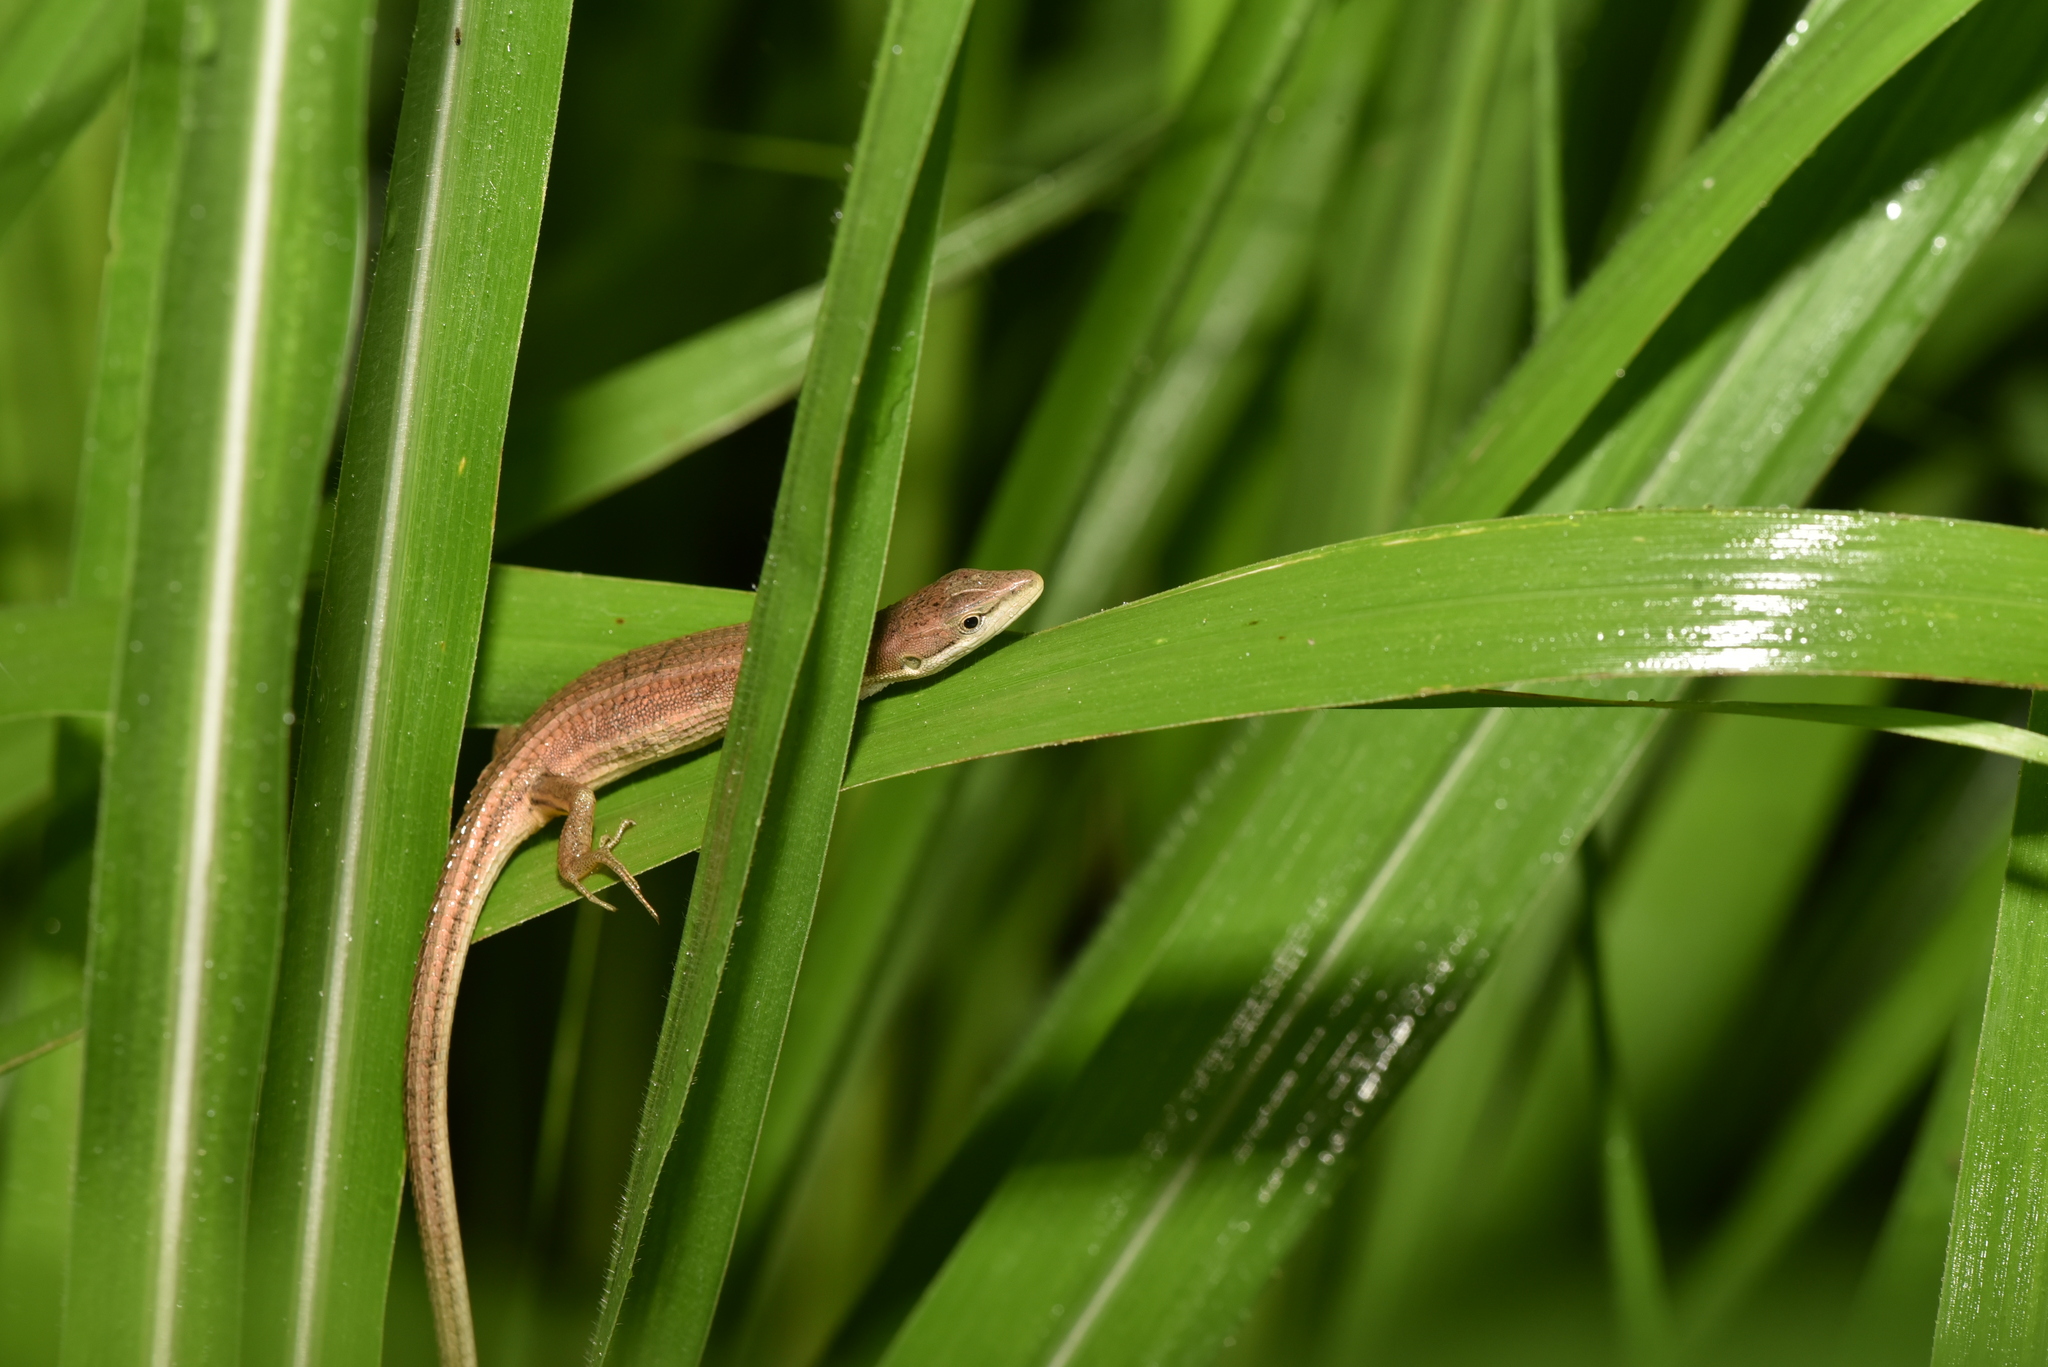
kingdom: Animalia
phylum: Chordata
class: Squamata
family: Lacertidae
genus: Takydromus
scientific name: Takydromus luyeanus
